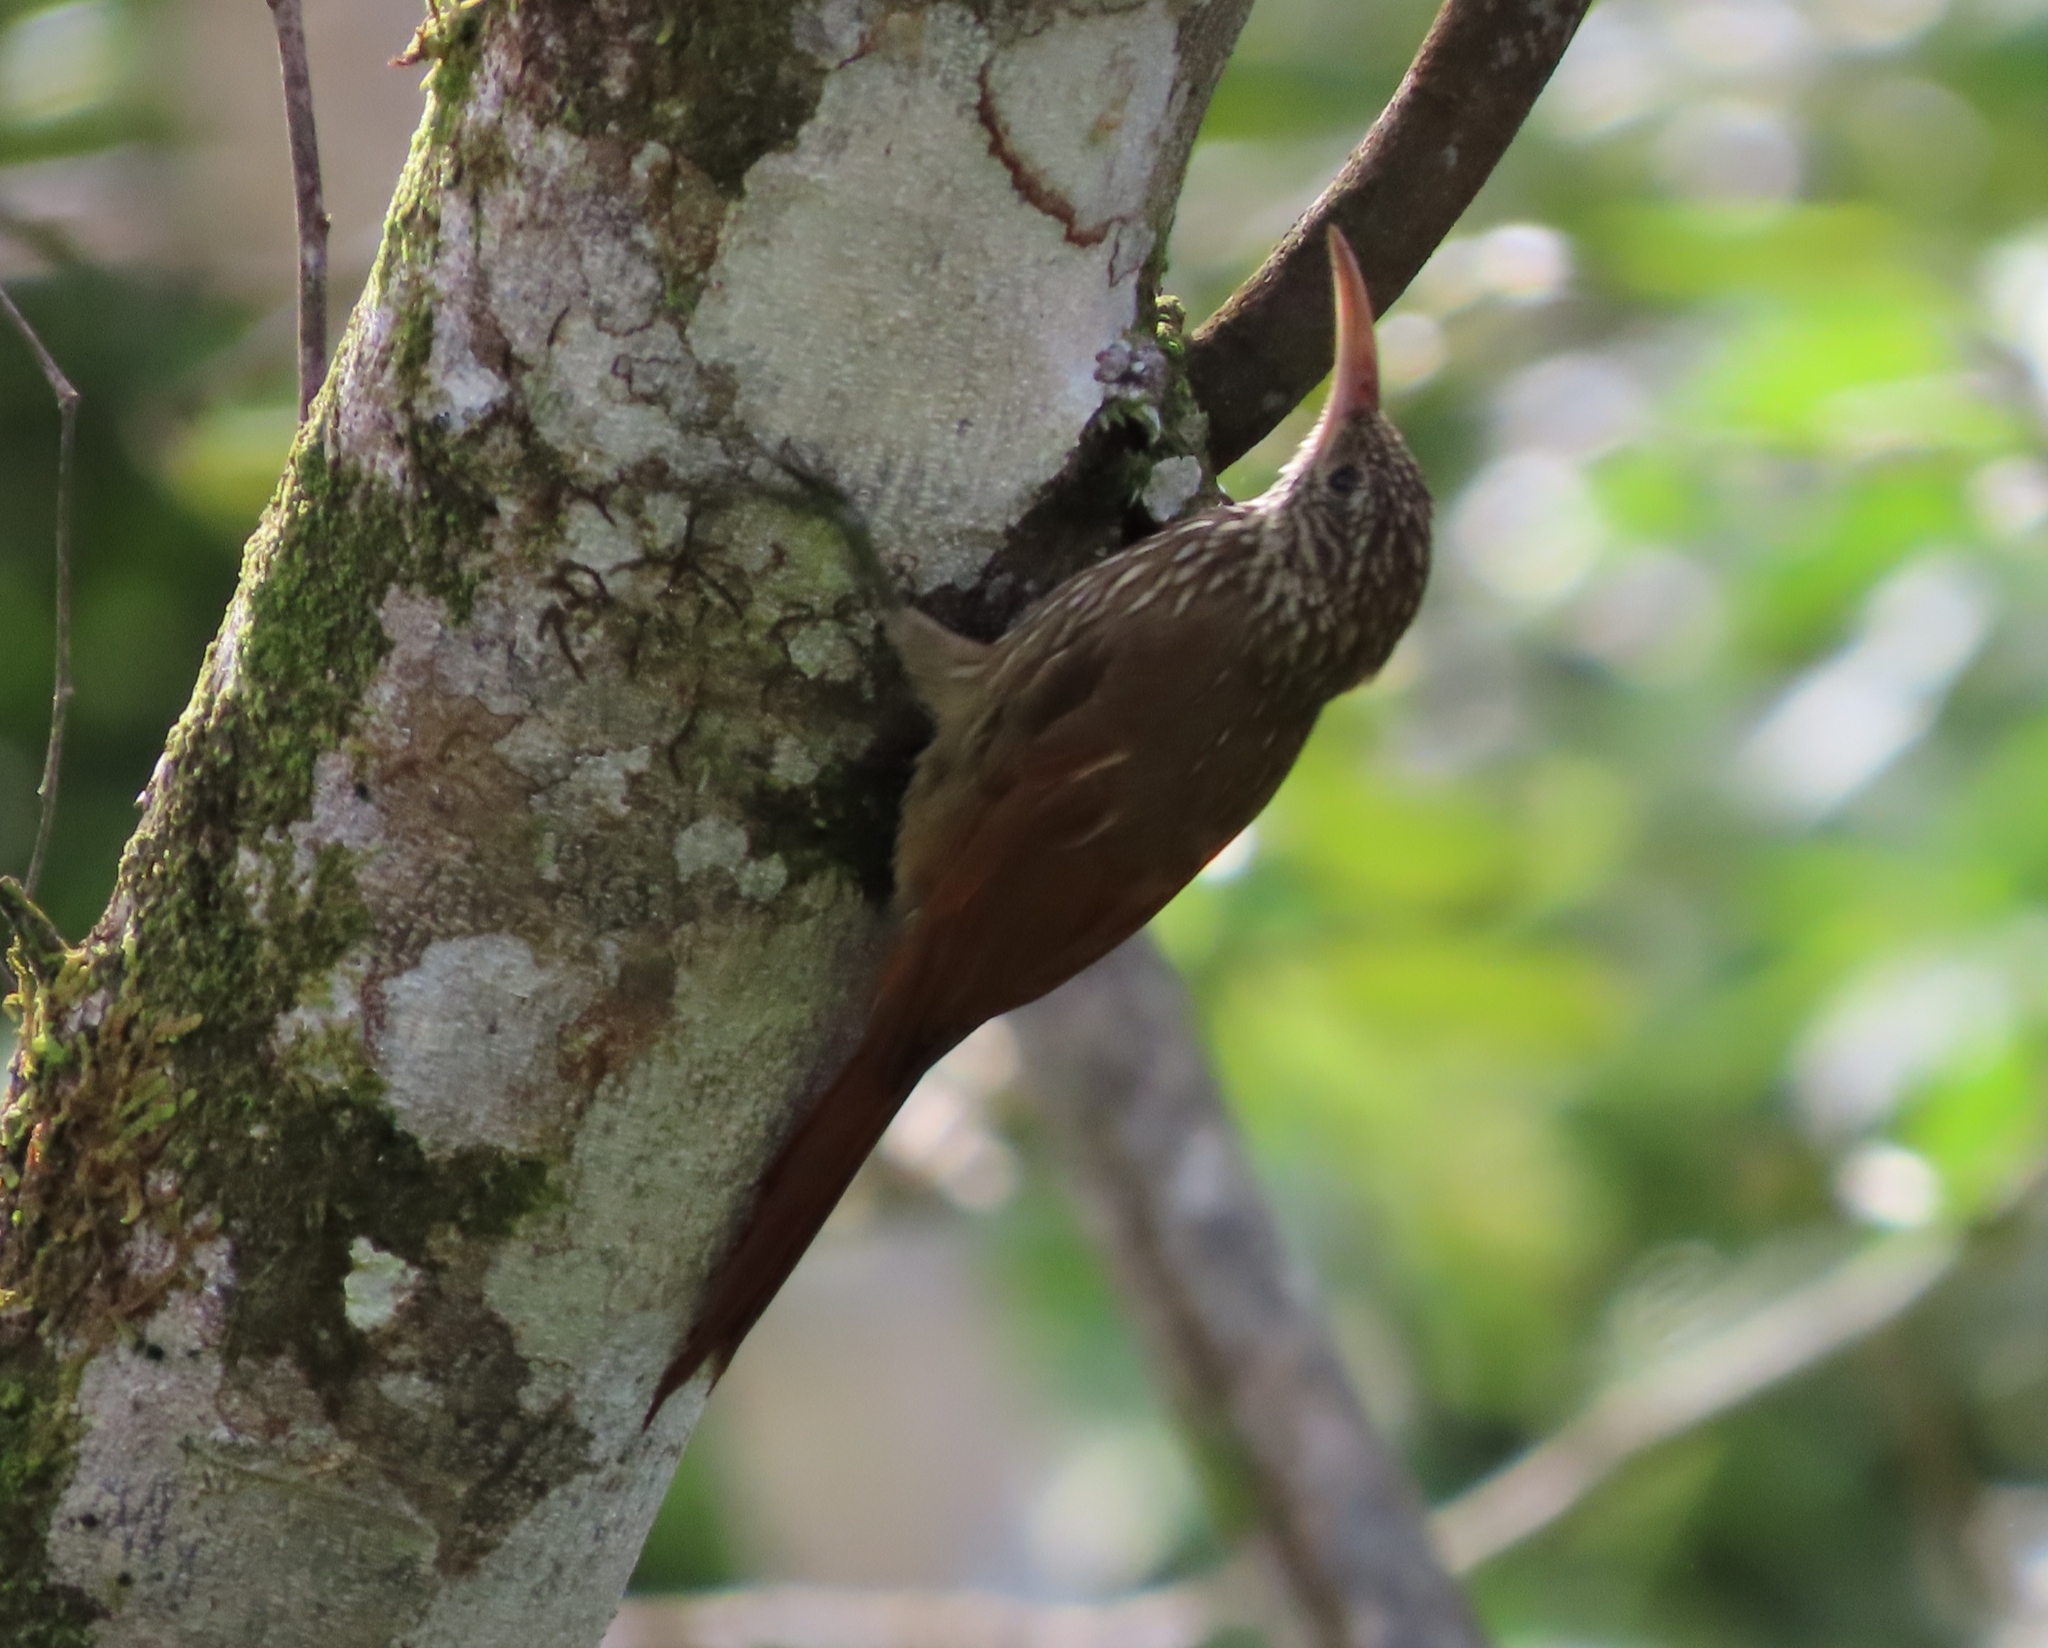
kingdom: Animalia
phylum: Chordata
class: Aves
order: Passeriformes
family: Furnariidae
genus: Lepidocolaptes
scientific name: Lepidocolaptes souleyetii
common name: Streak-headed woodcreeper
